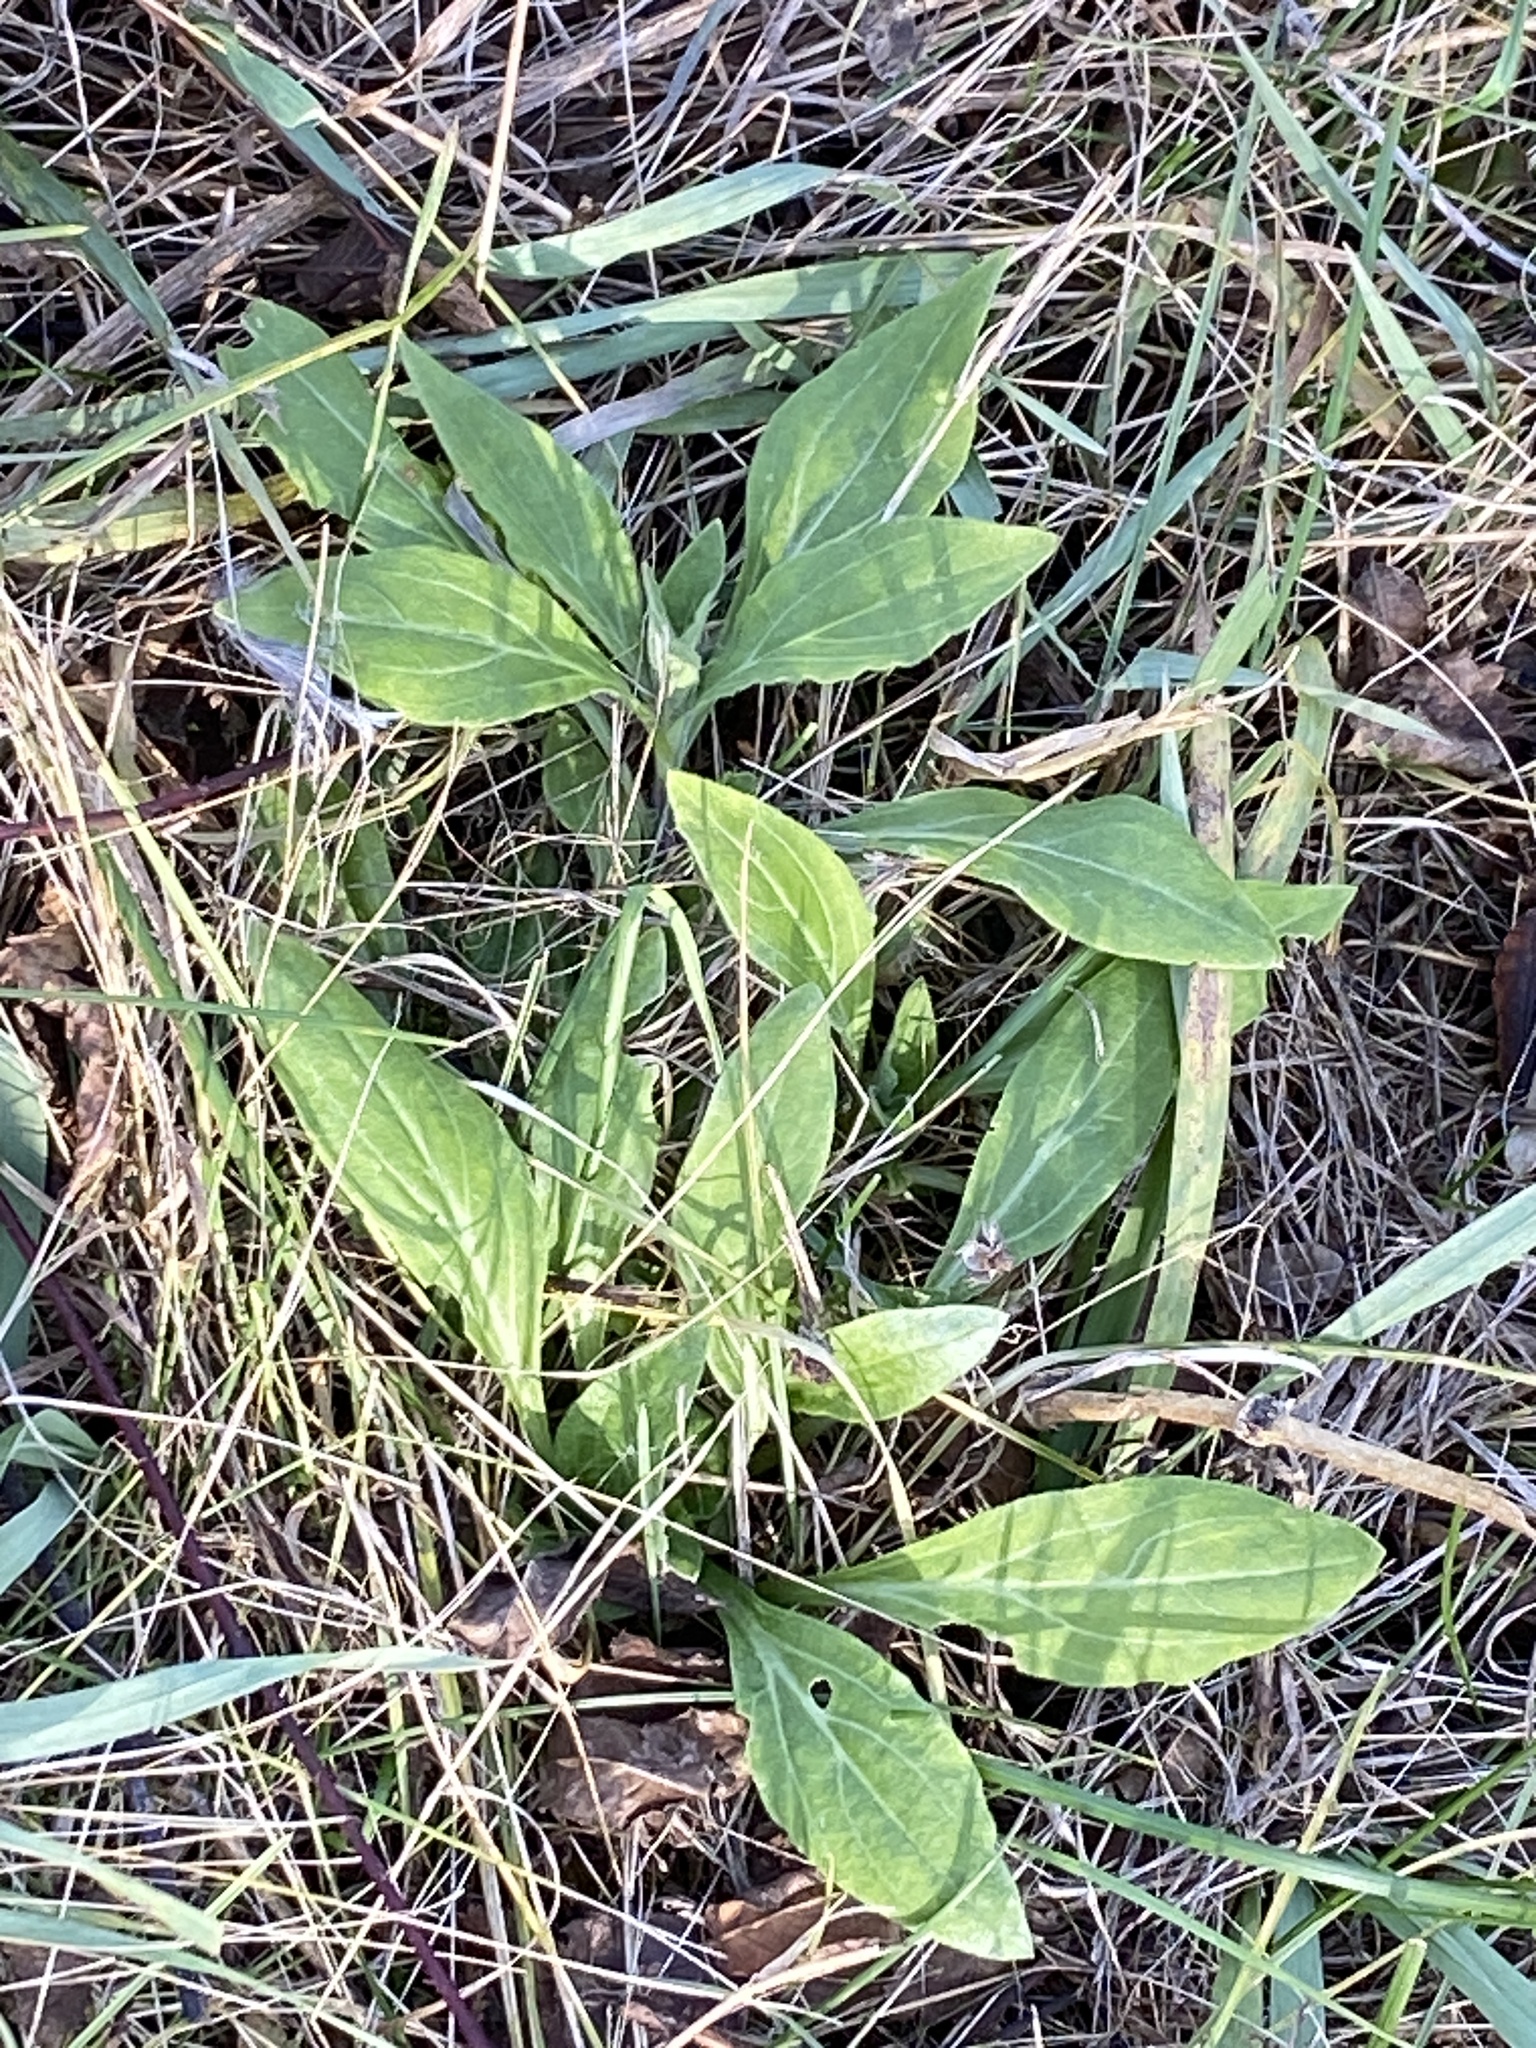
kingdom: Plantae
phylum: Tracheophyta
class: Magnoliopsida
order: Caryophyllales
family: Caryophyllaceae
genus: Silene
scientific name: Silene latifolia
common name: White campion
